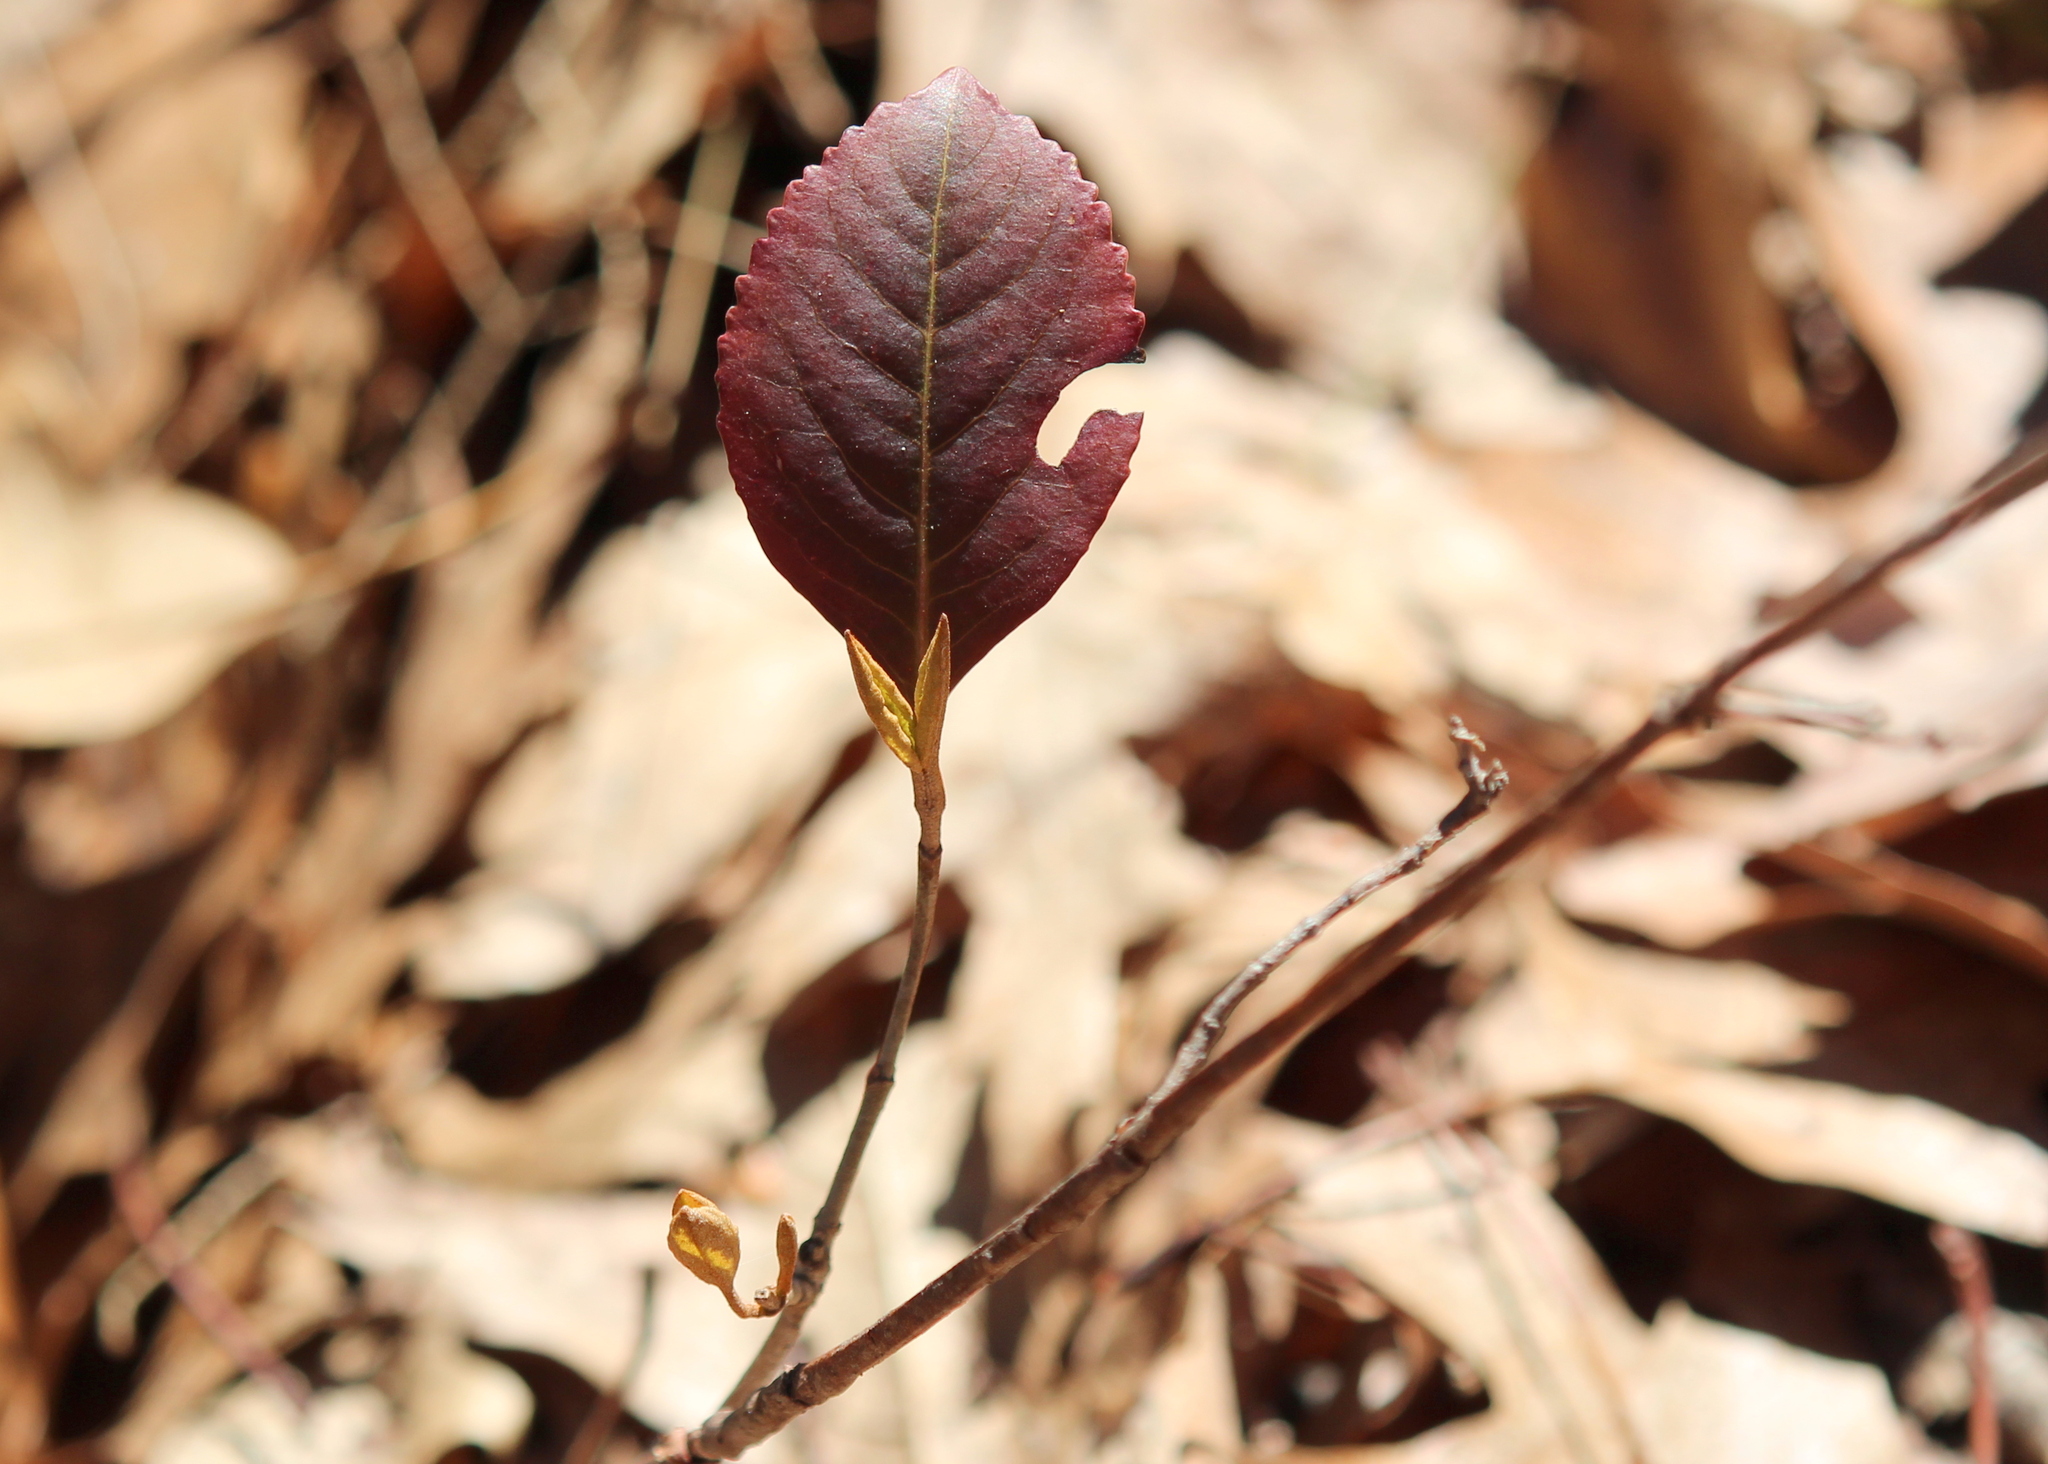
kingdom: Plantae
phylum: Tracheophyta
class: Magnoliopsida
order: Dipsacales
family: Viburnaceae
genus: Viburnum
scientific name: Viburnum cassinoides
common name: Swamp haw
